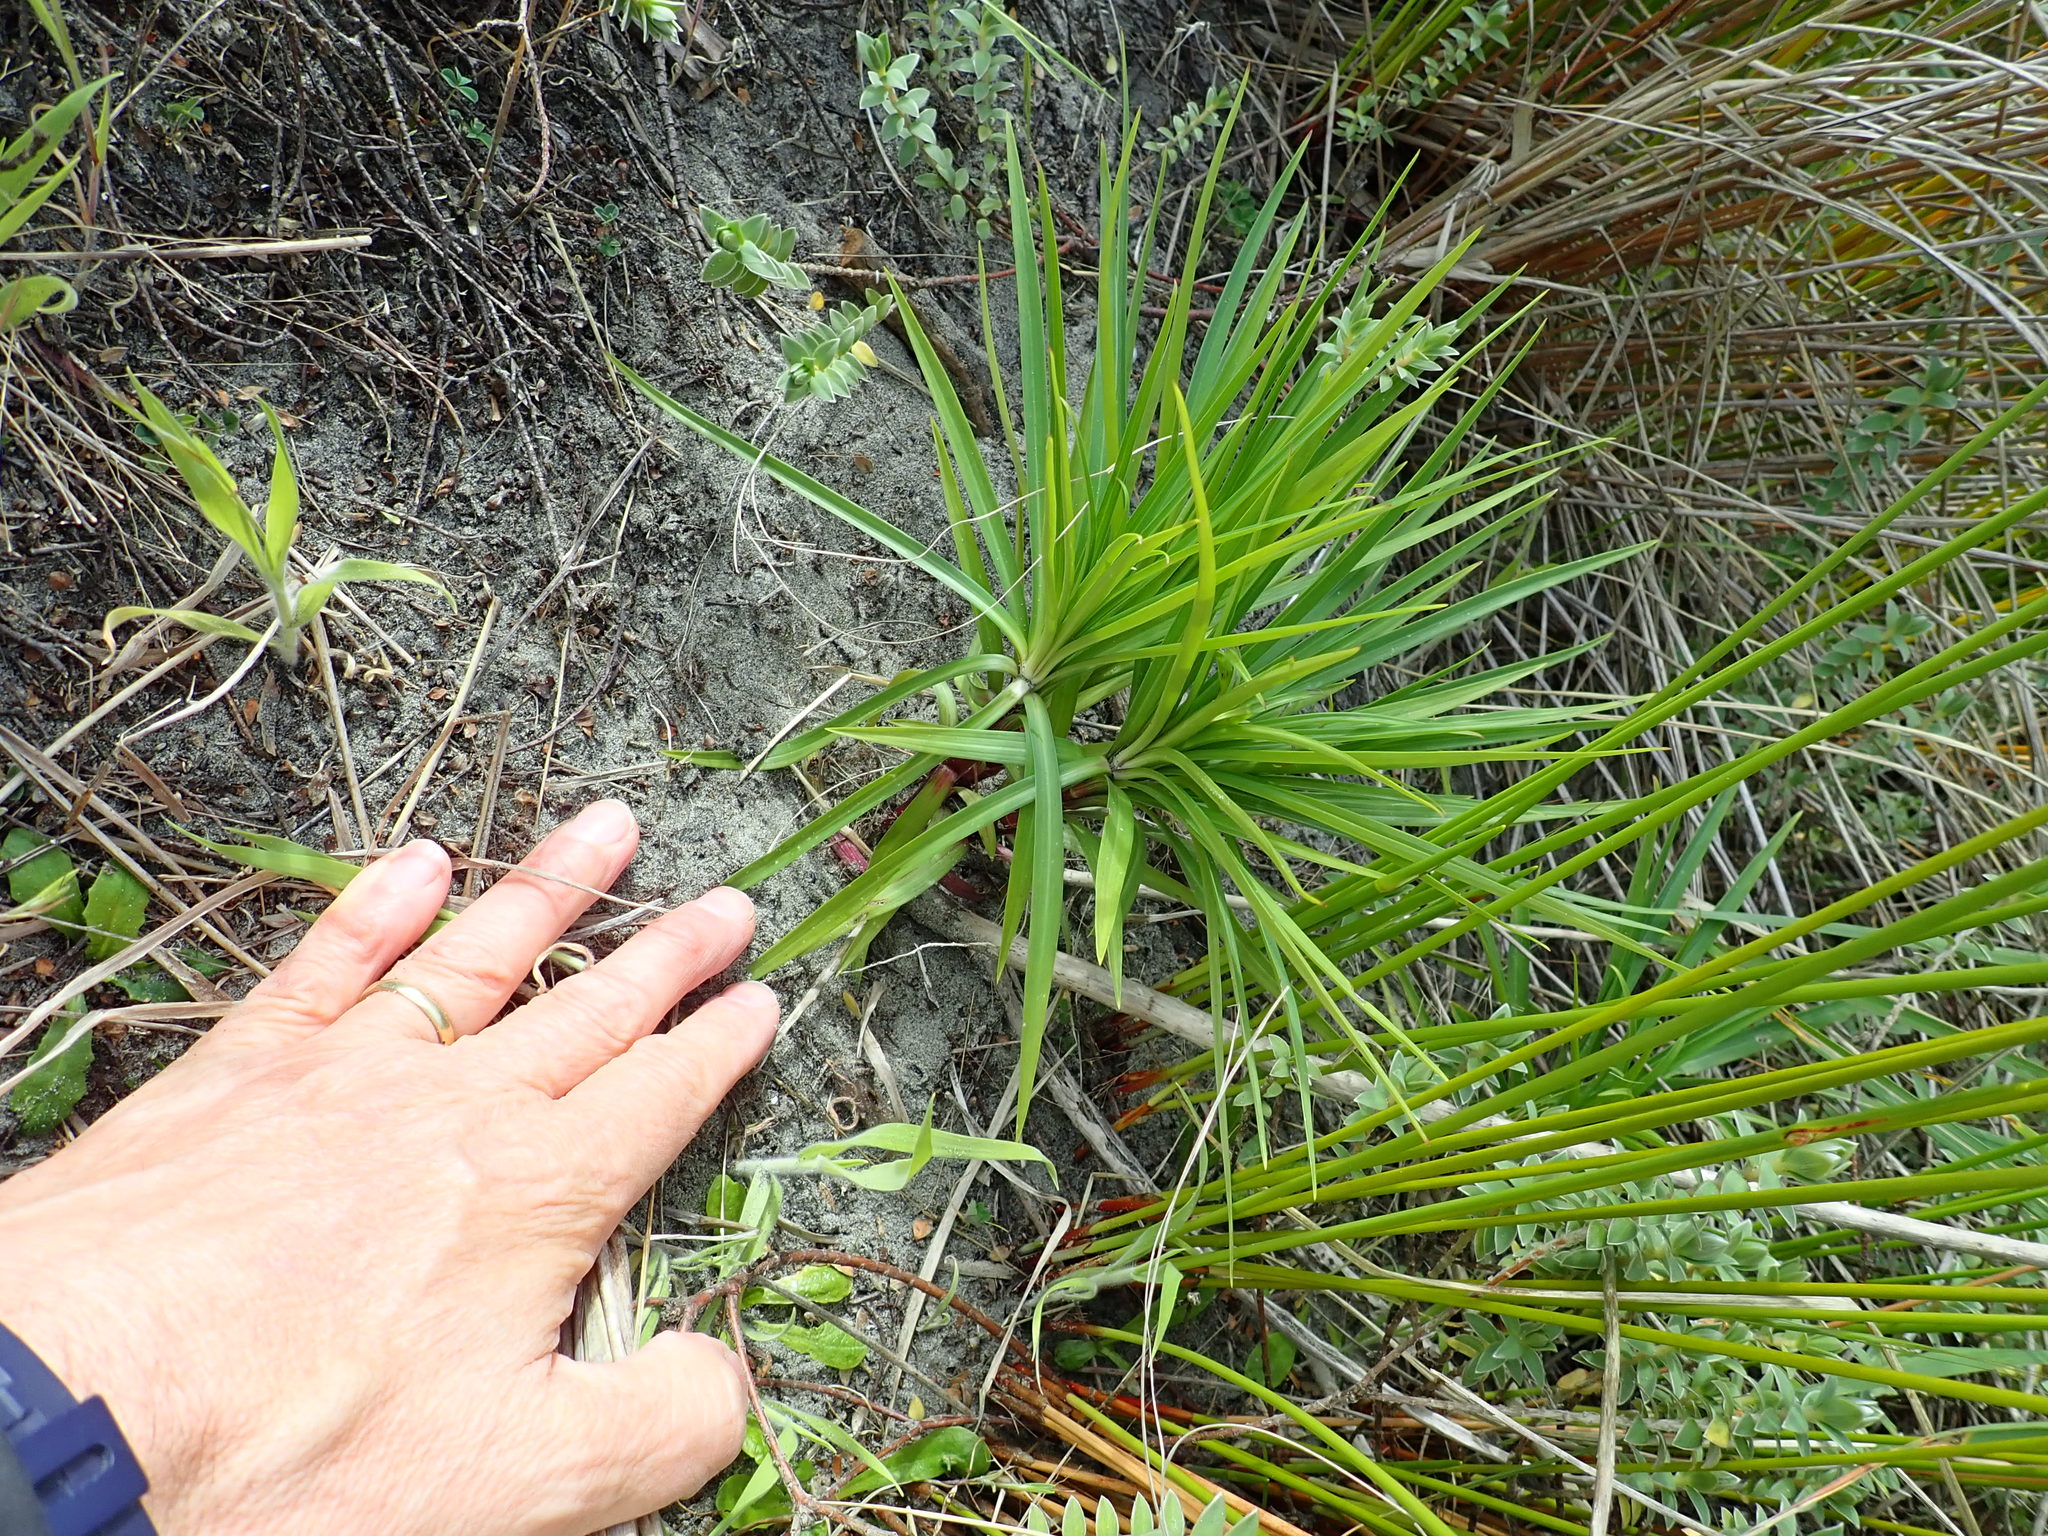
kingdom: Plantae
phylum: Tracheophyta
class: Liliopsida
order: Liliales
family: Liliaceae
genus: Lilium
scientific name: Lilium formosanum
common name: Formosa lily
